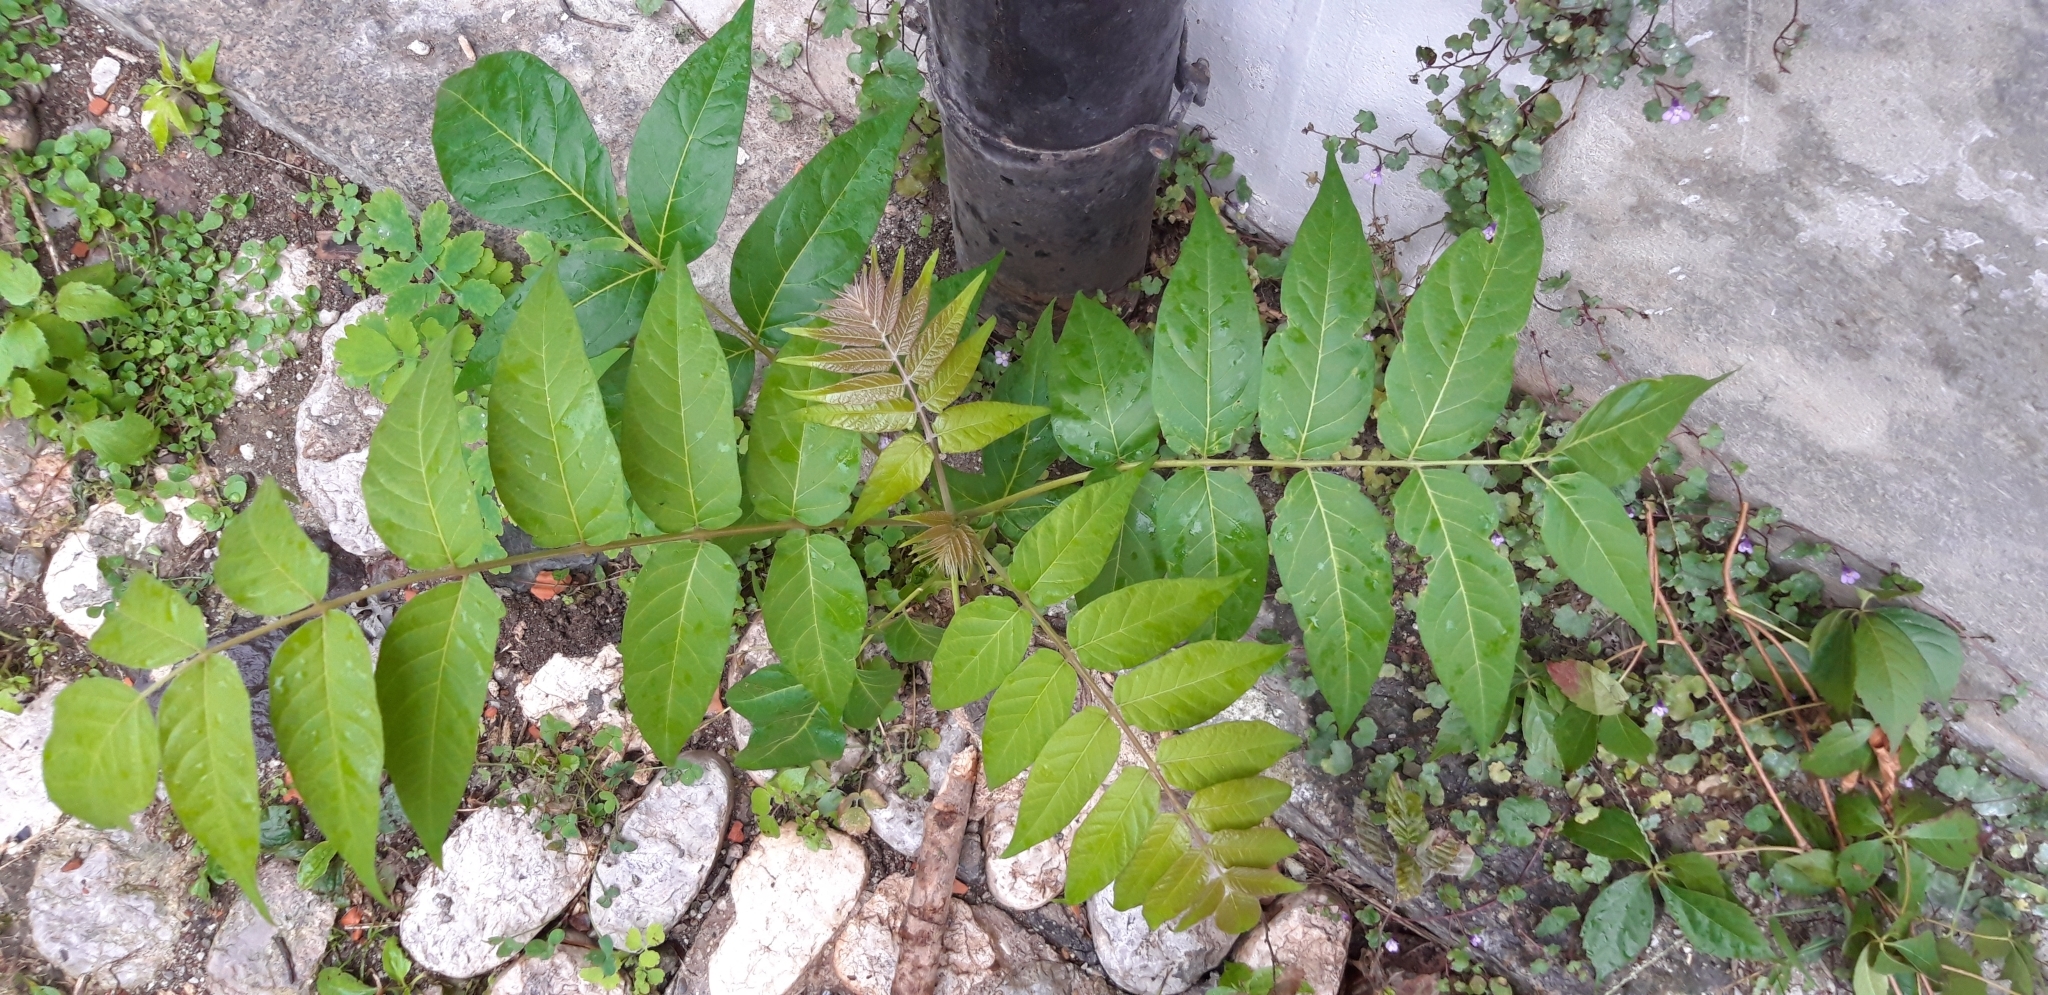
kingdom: Plantae
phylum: Tracheophyta
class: Magnoliopsida
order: Sapindales
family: Simaroubaceae
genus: Ailanthus
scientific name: Ailanthus altissima
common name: Tree-of-heaven
